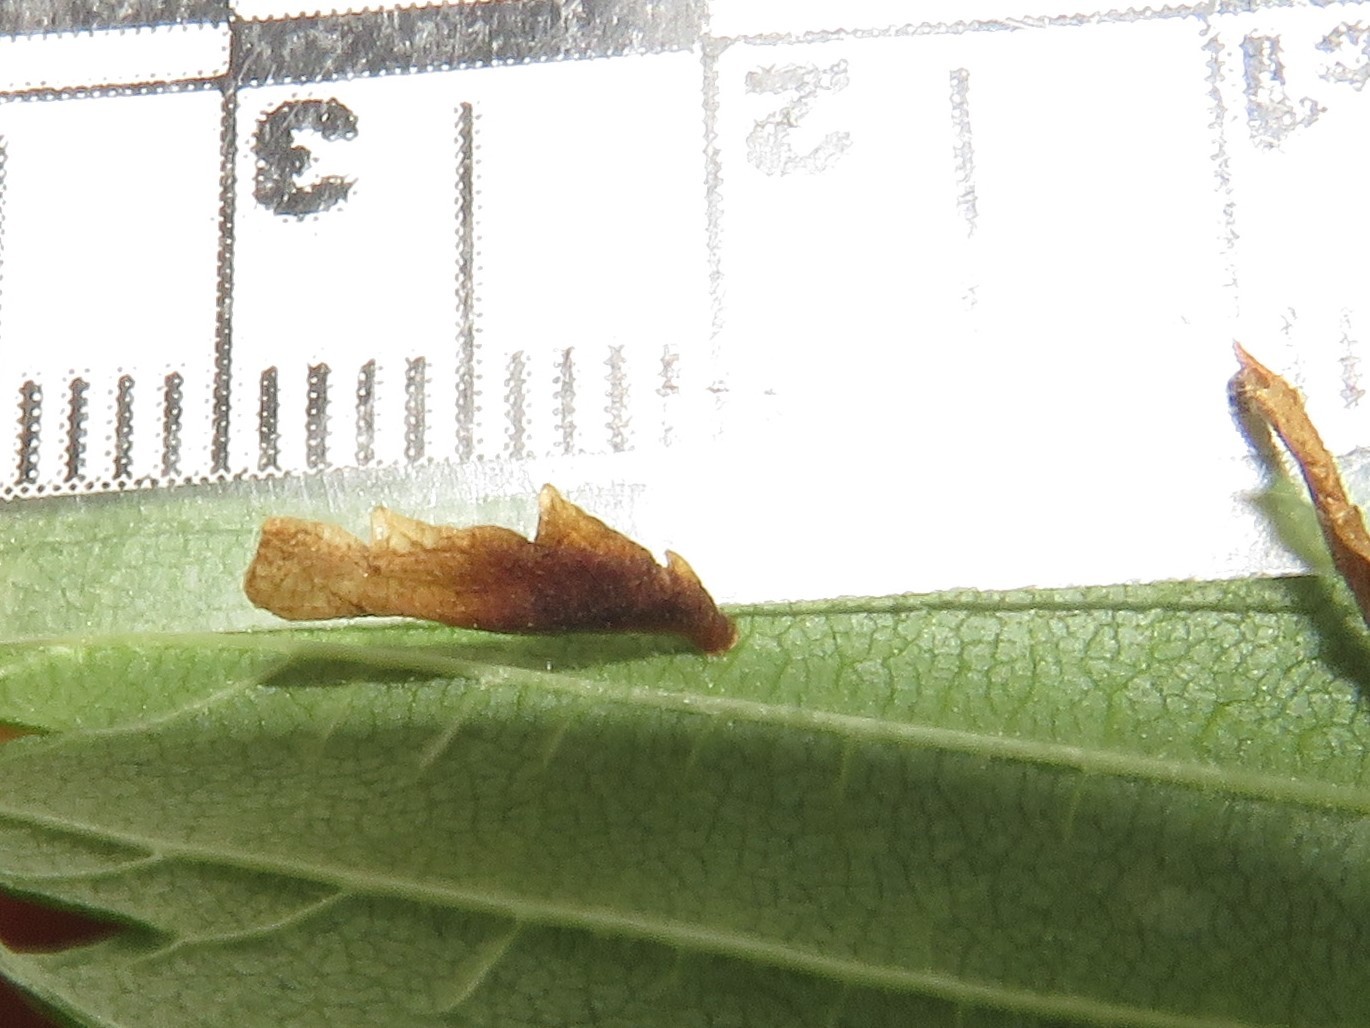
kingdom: Animalia
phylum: Arthropoda
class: Insecta
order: Lepidoptera
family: Coleophoridae
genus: Coleophora
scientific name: Coleophora limosipennella
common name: Dark elm case-bearer
